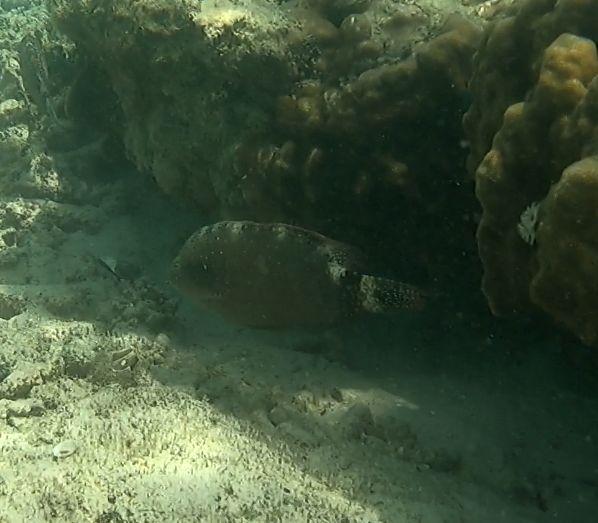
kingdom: Animalia
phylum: Chordata
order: Perciformes
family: Labridae
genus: Cheilinus
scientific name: Cheilinus chlorourus
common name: Floral wrasse
